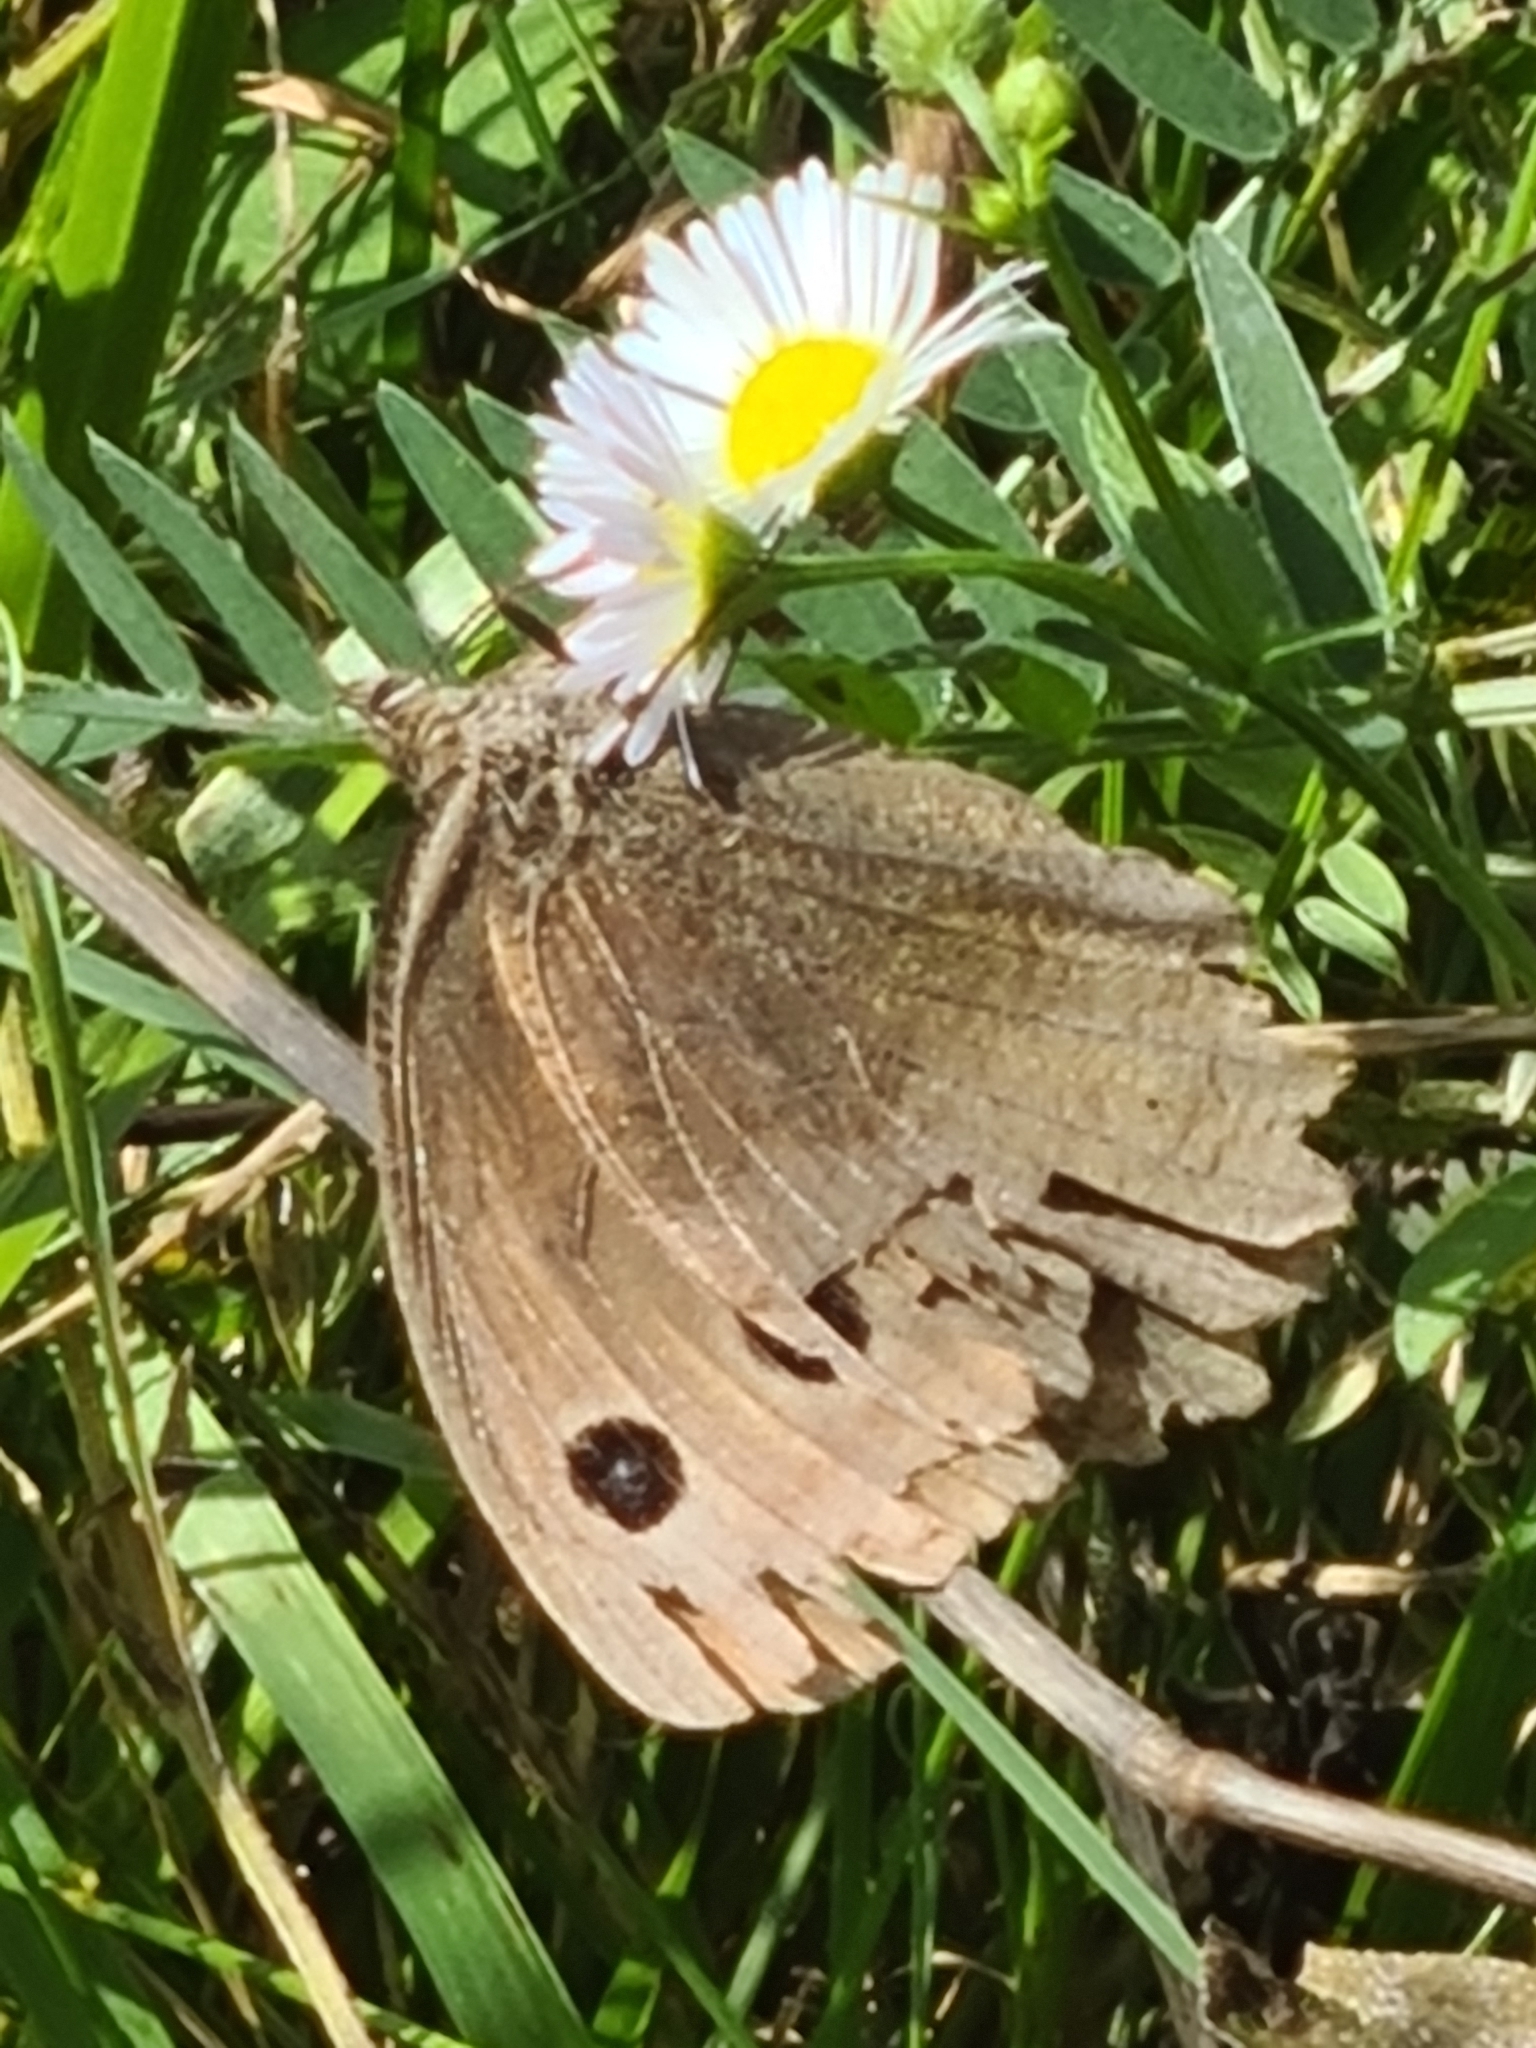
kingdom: Animalia
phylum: Arthropoda
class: Insecta
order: Lepidoptera
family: Nymphalidae
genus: Minois
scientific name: Minois dryas
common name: Dryad
